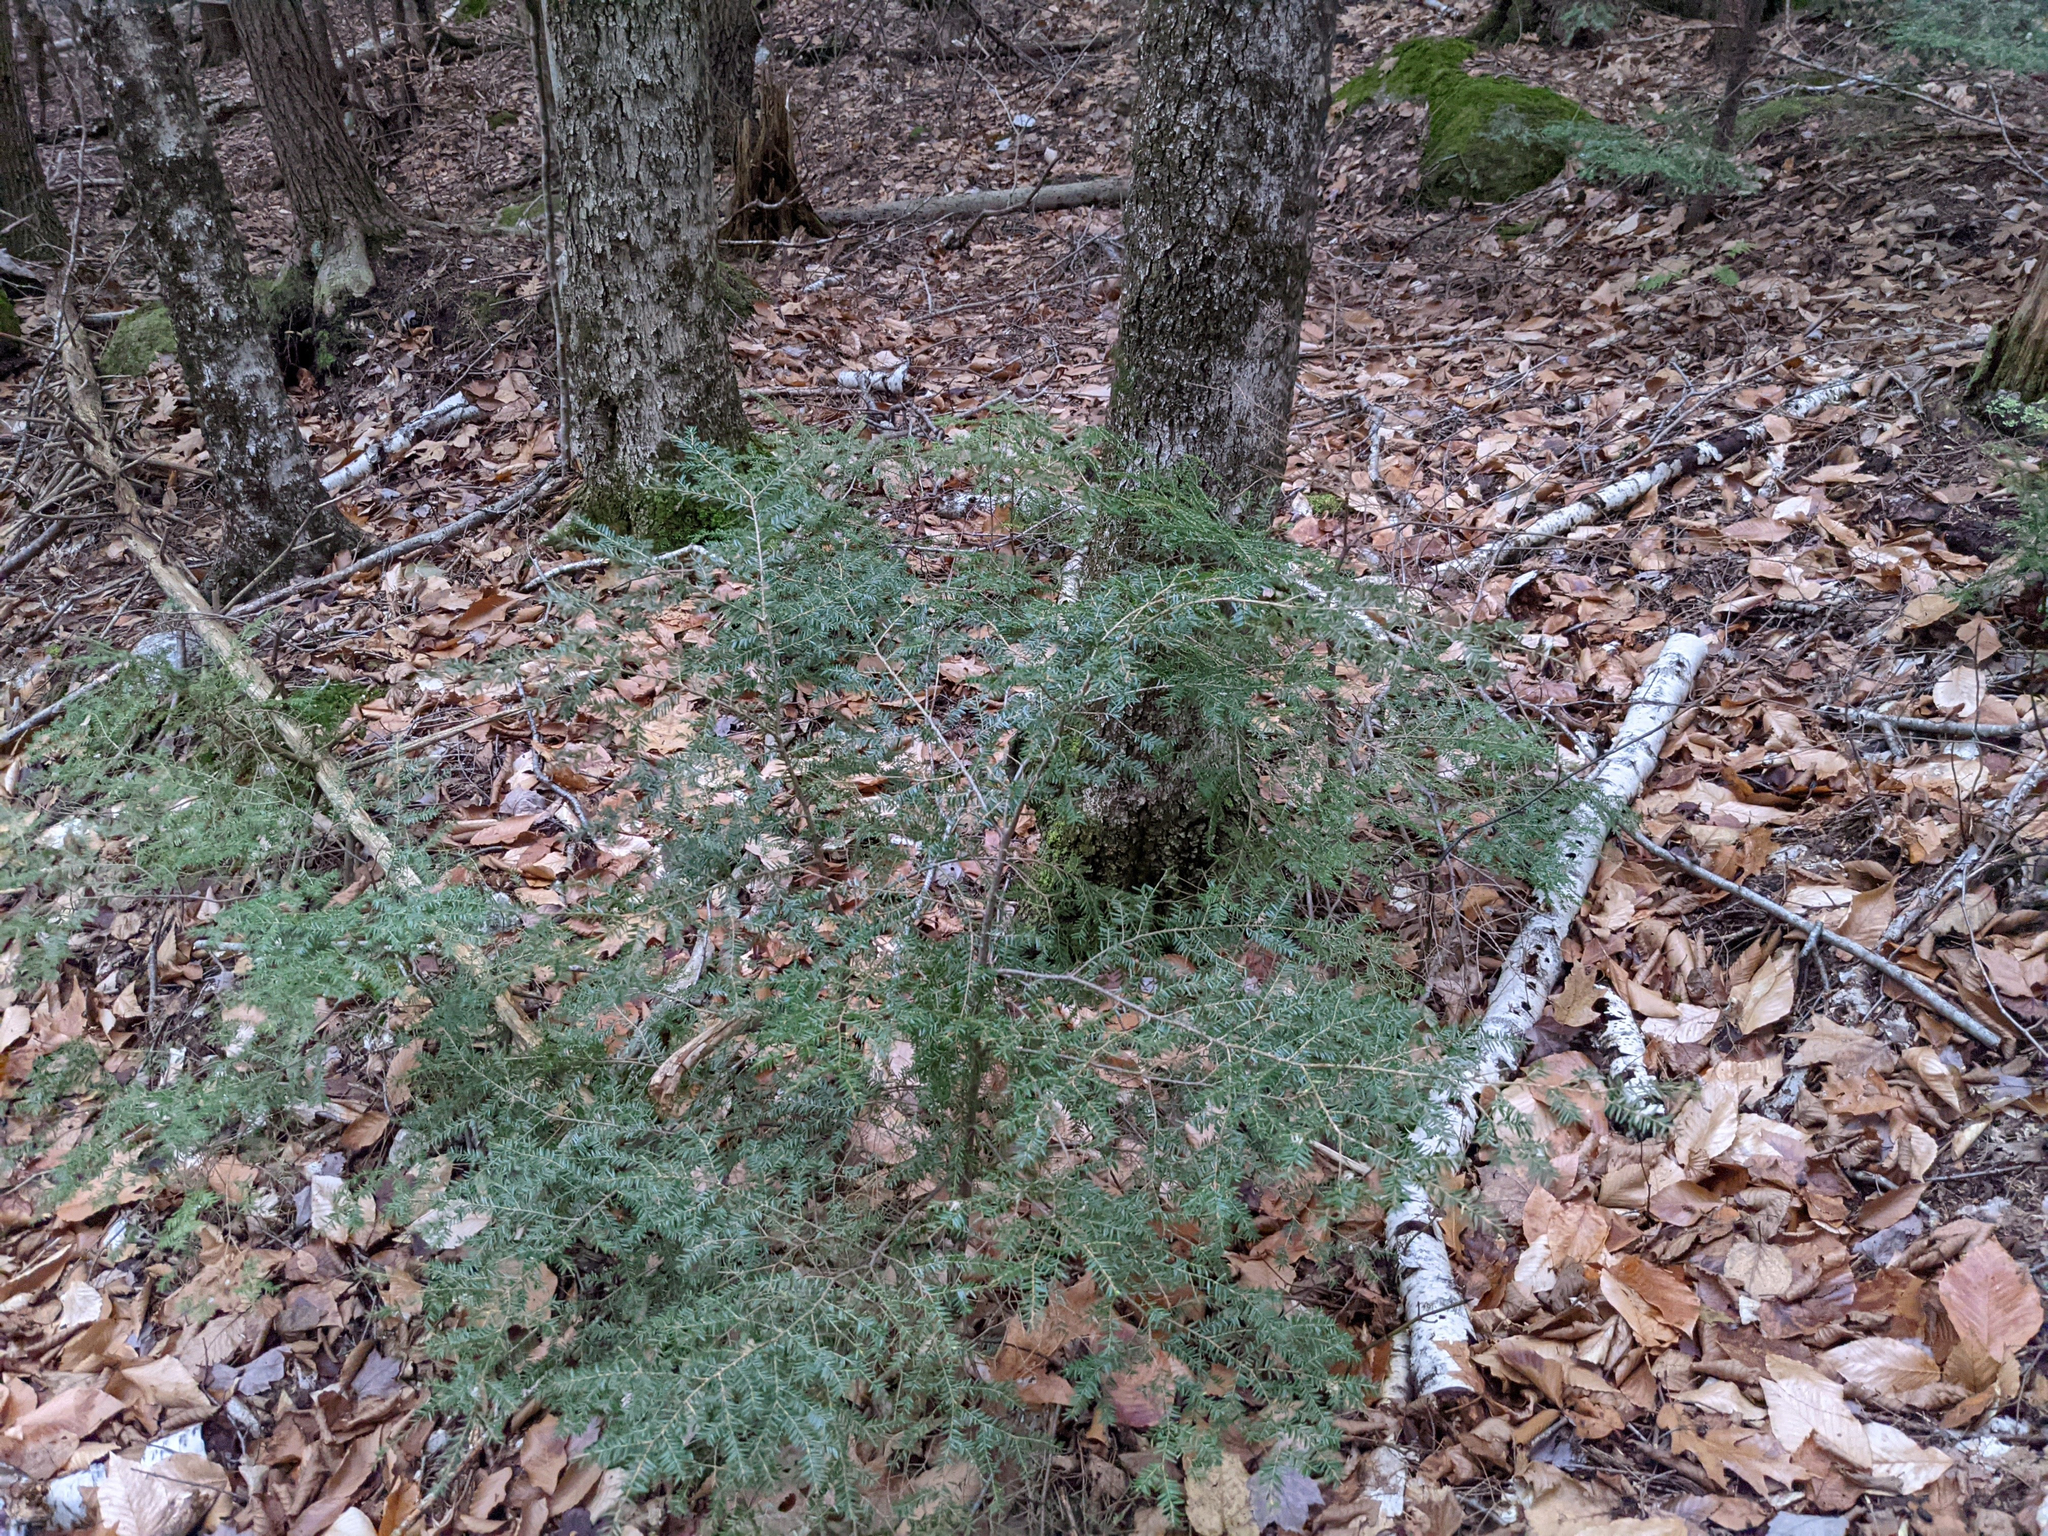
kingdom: Plantae
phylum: Tracheophyta
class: Pinopsida
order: Pinales
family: Pinaceae
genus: Tsuga
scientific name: Tsuga canadensis
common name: Eastern hemlock
